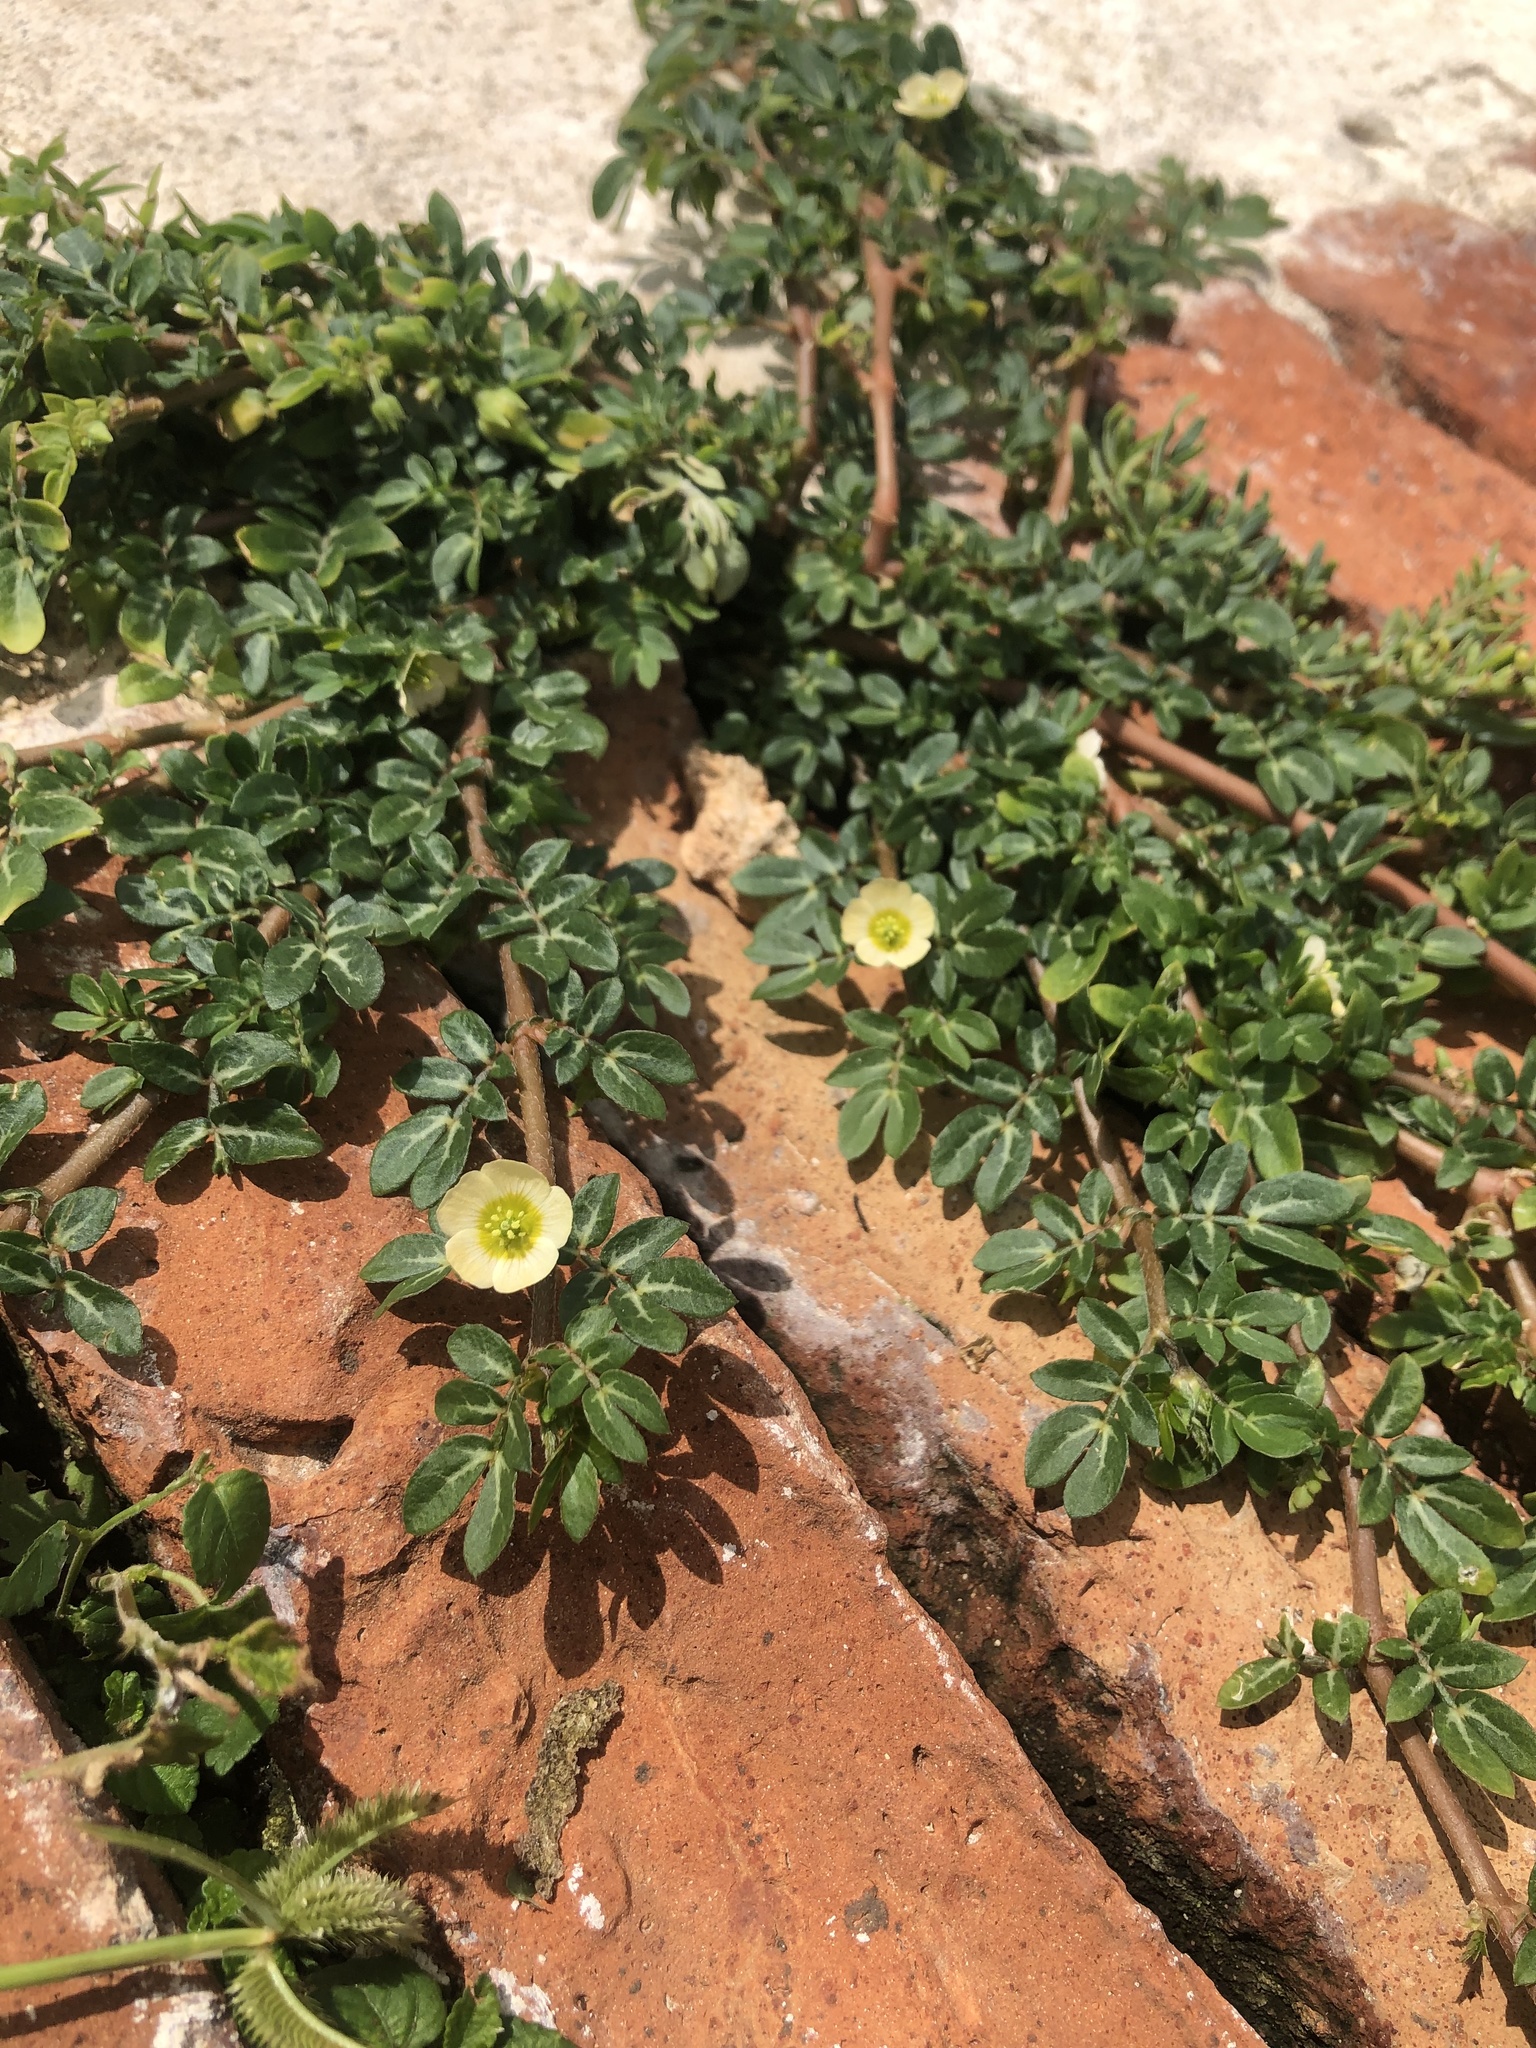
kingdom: Plantae
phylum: Tracheophyta
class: Magnoliopsida
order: Zygophyllales
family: Zygophyllaceae
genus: Kallstroemia
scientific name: Kallstroemia maxima
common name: Big caltropa
